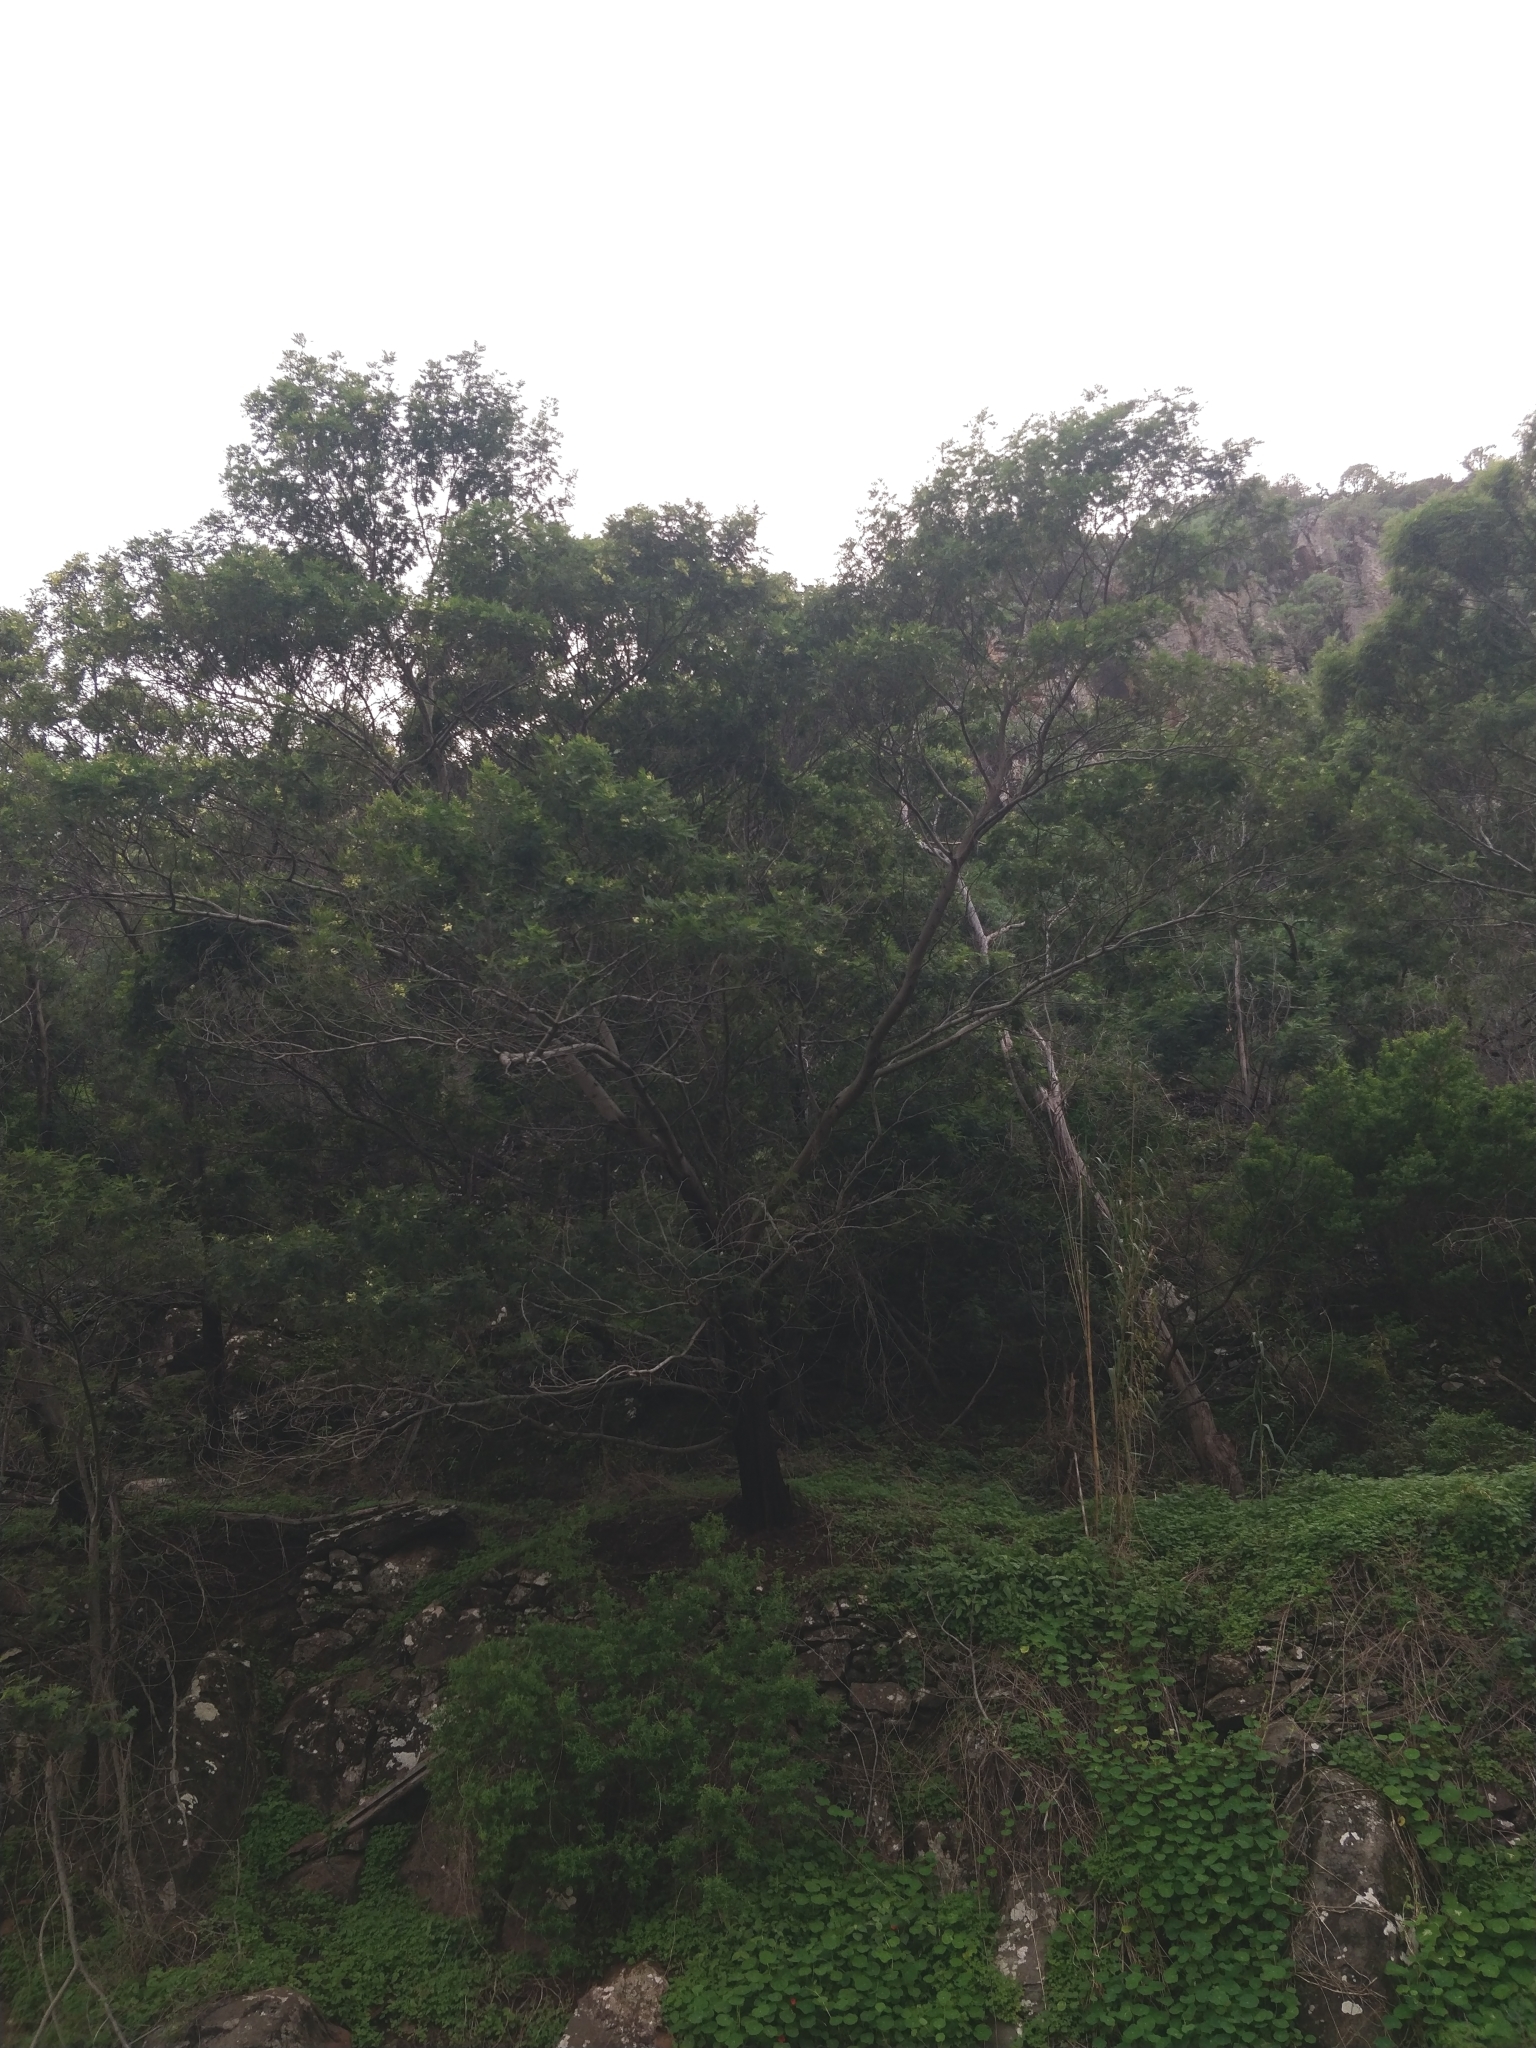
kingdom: Plantae
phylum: Tracheophyta
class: Magnoliopsida
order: Fabales
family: Fabaceae
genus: Acacia
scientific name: Acacia mearnsii
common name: Black wattle
